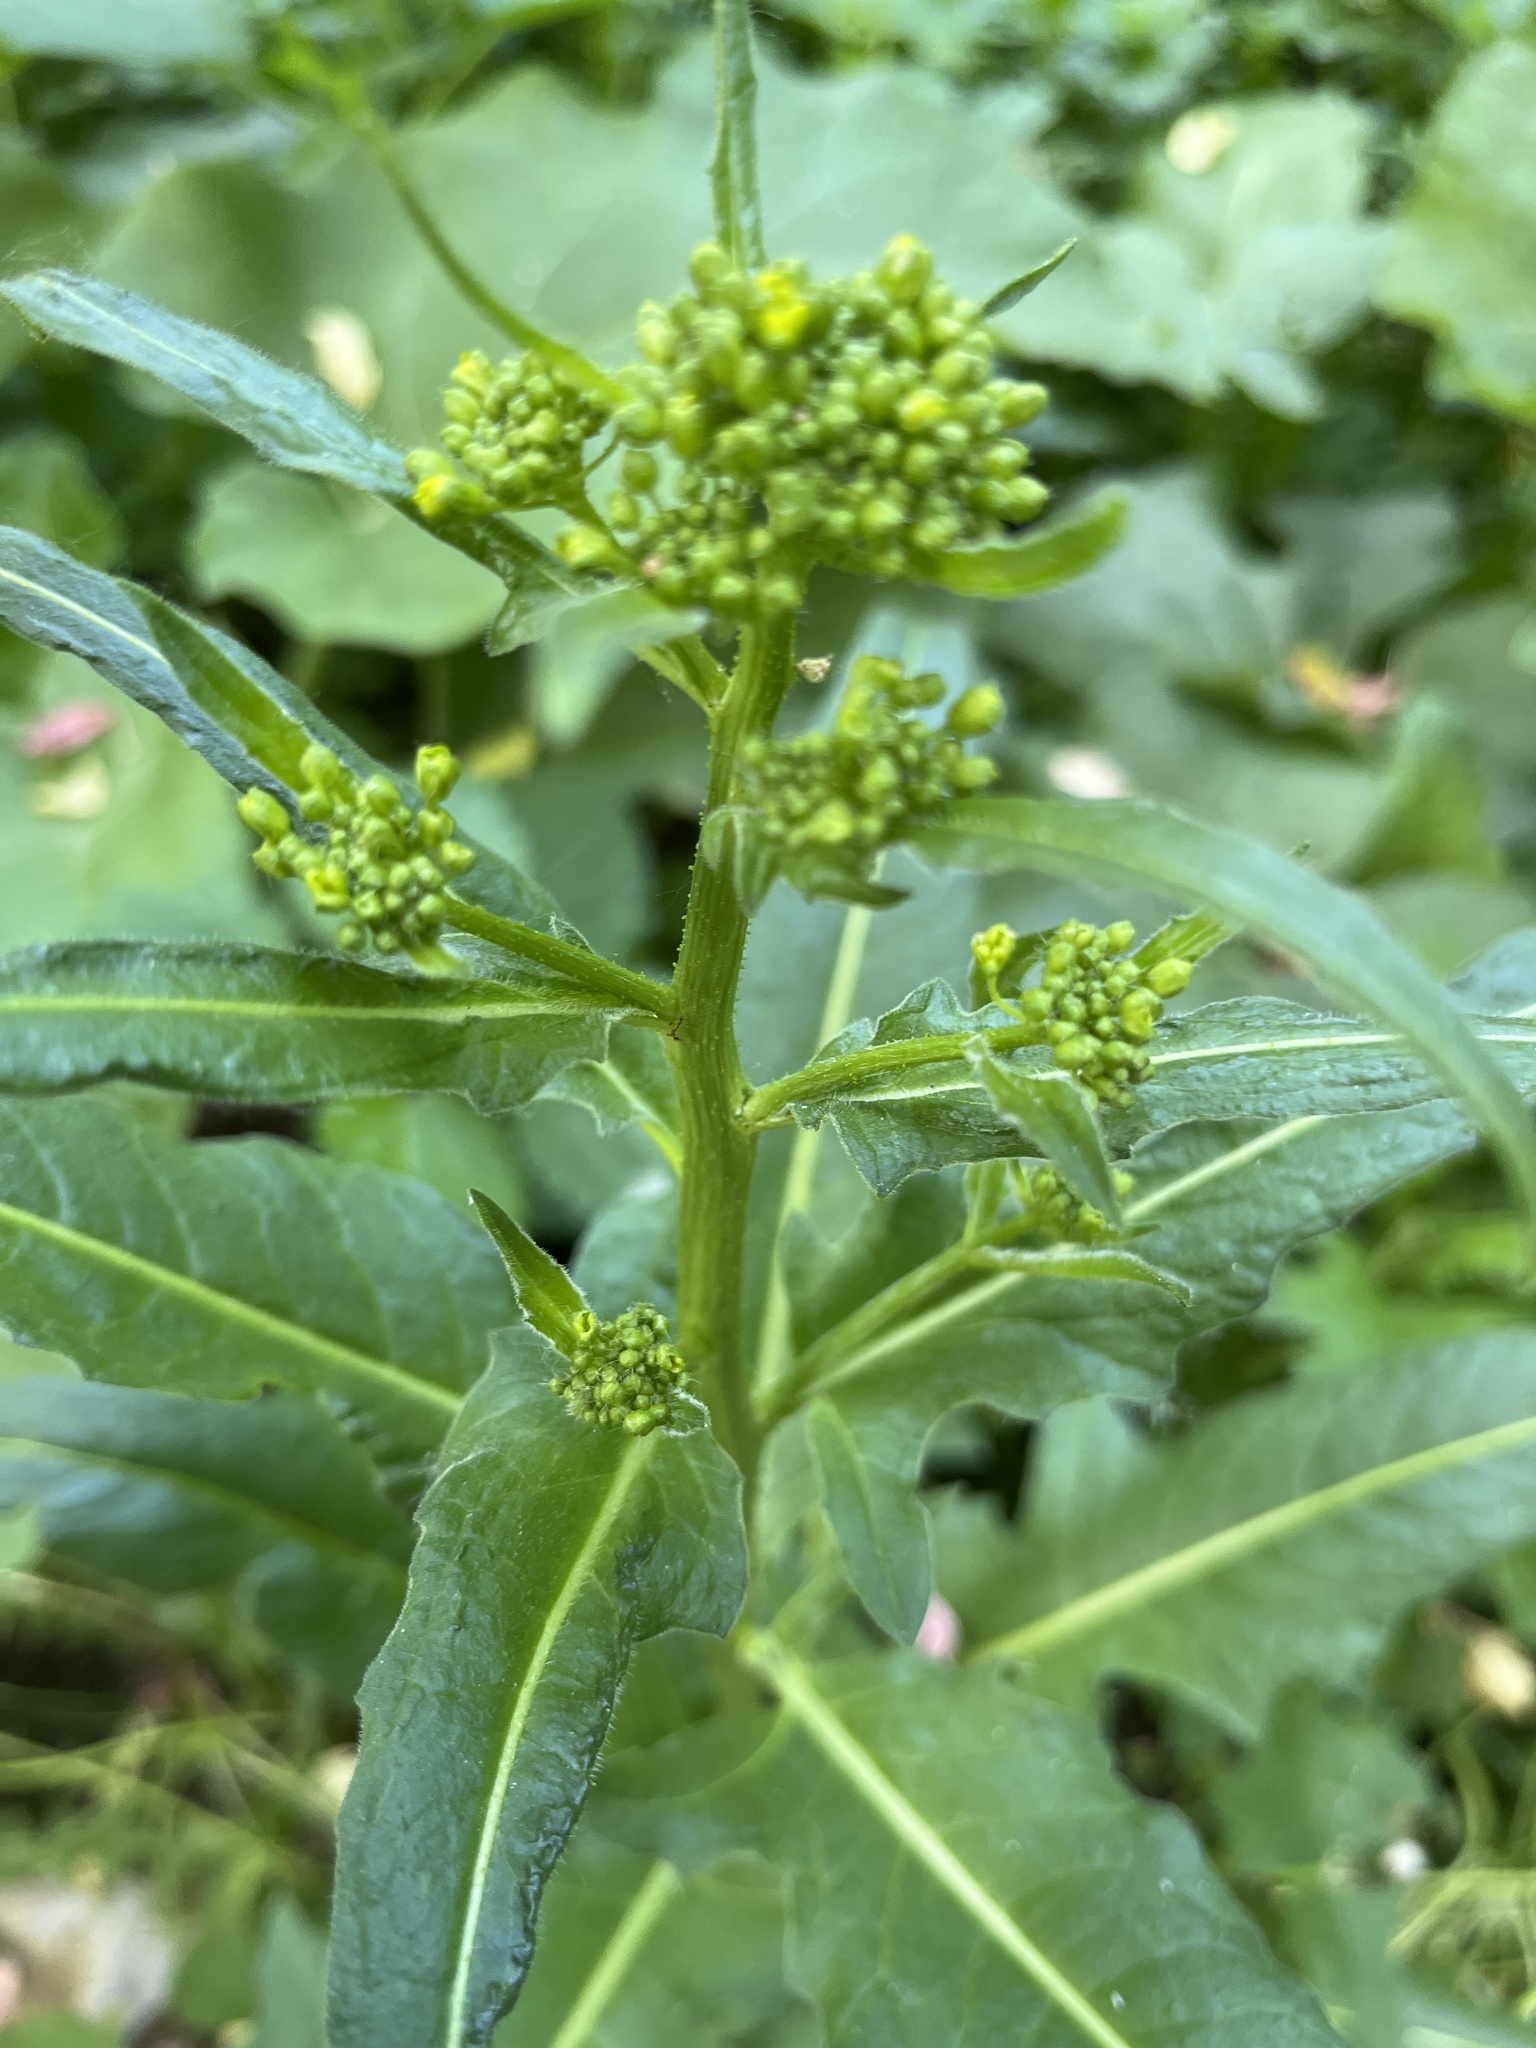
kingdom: Plantae
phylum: Tracheophyta
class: Magnoliopsida
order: Brassicales
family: Brassicaceae
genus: Bunias
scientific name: Bunias orientalis
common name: Warty-cabbage
